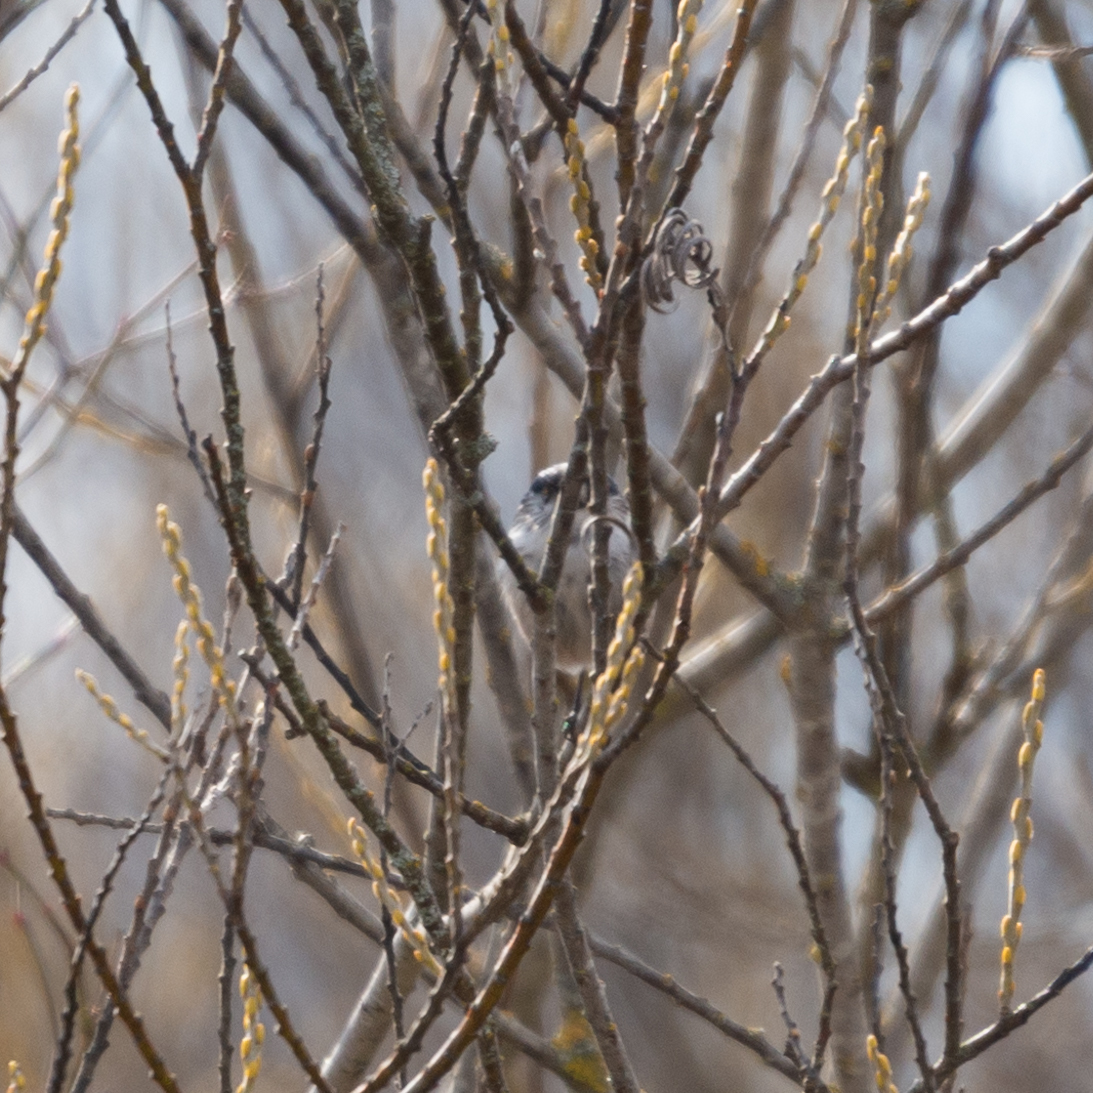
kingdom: Animalia
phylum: Chordata
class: Aves
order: Passeriformes
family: Aegithalidae
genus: Aegithalos
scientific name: Aegithalos caudatus
